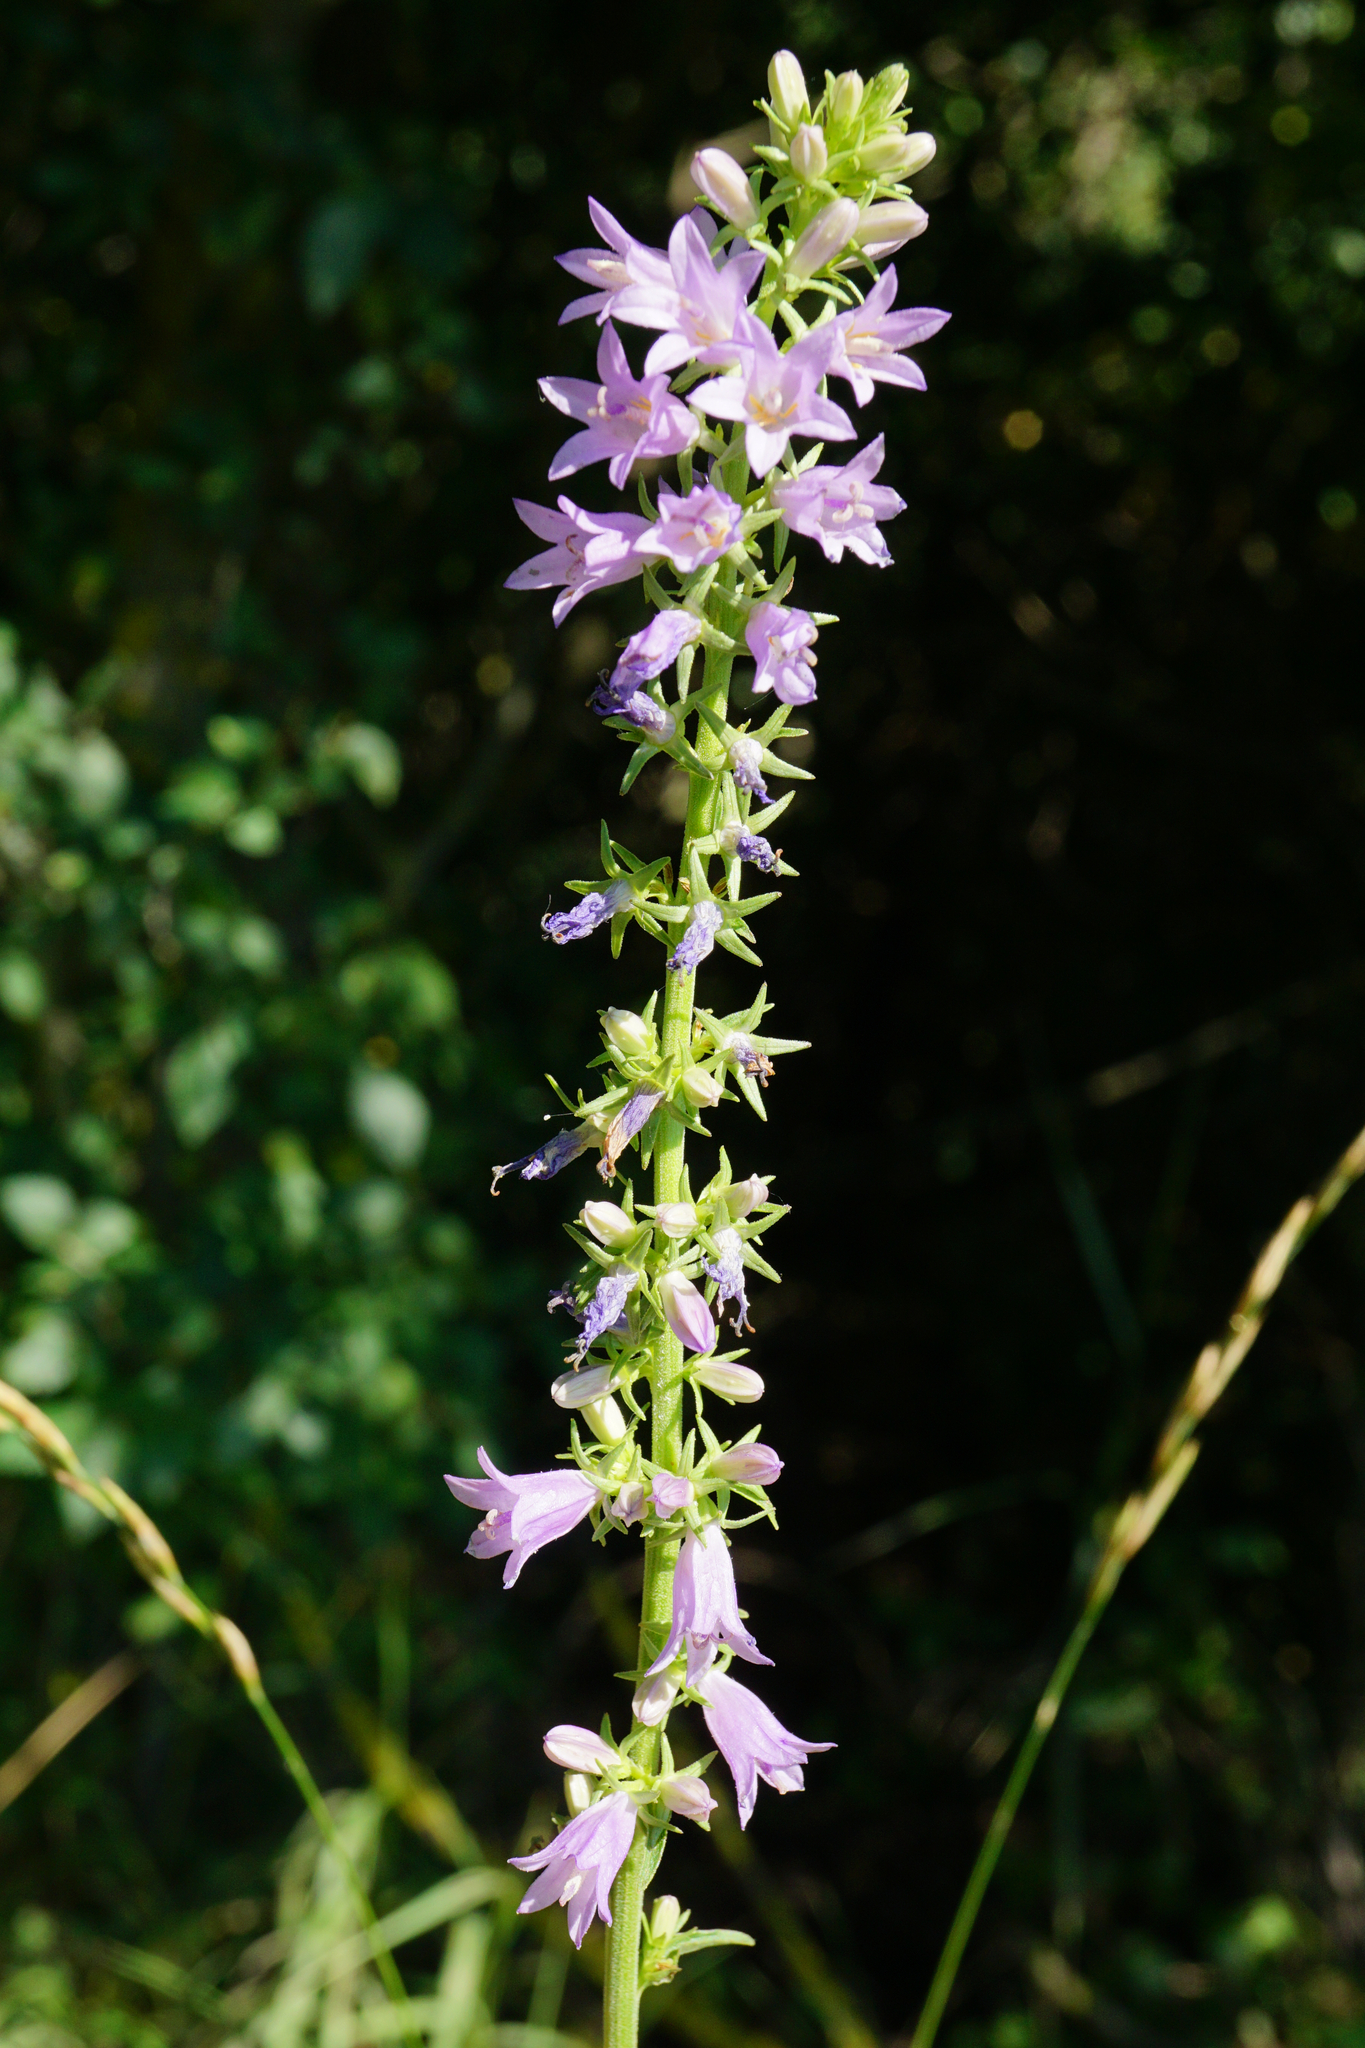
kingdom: Plantae
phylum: Tracheophyta
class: Magnoliopsida
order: Asterales
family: Campanulaceae
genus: Campanula
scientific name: Campanula bononiensis
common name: Pale bellflower
